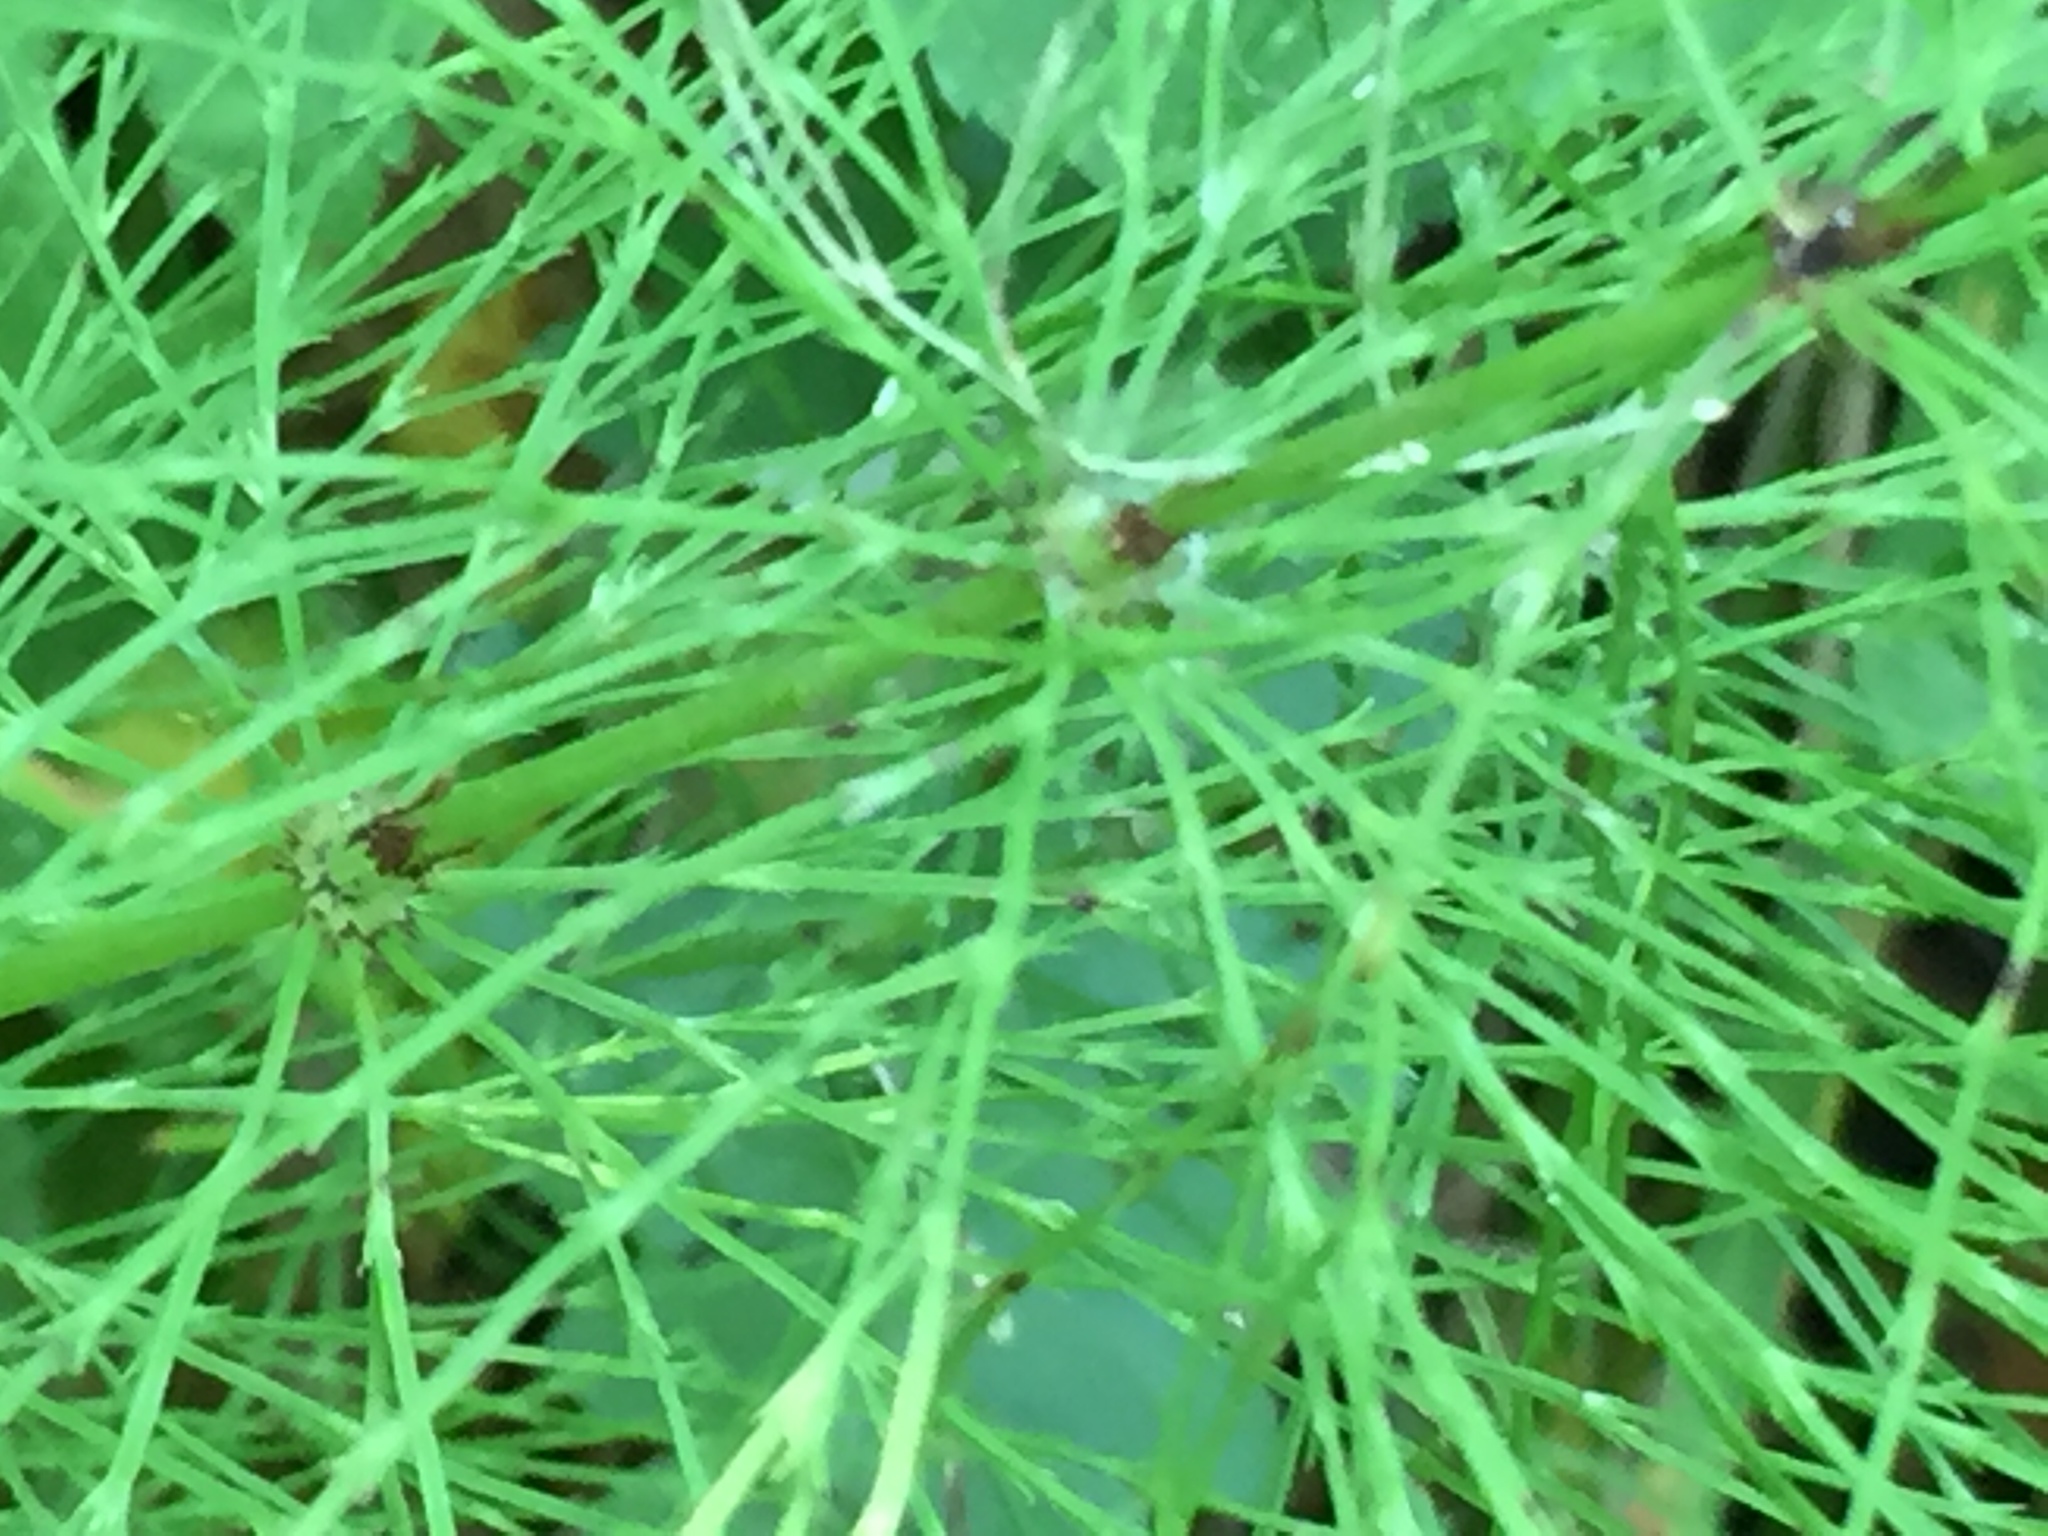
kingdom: Plantae
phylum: Tracheophyta
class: Polypodiopsida
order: Equisetales
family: Equisetaceae
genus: Equisetum
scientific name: Equisetum sylvaticum
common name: Wood horsetail
